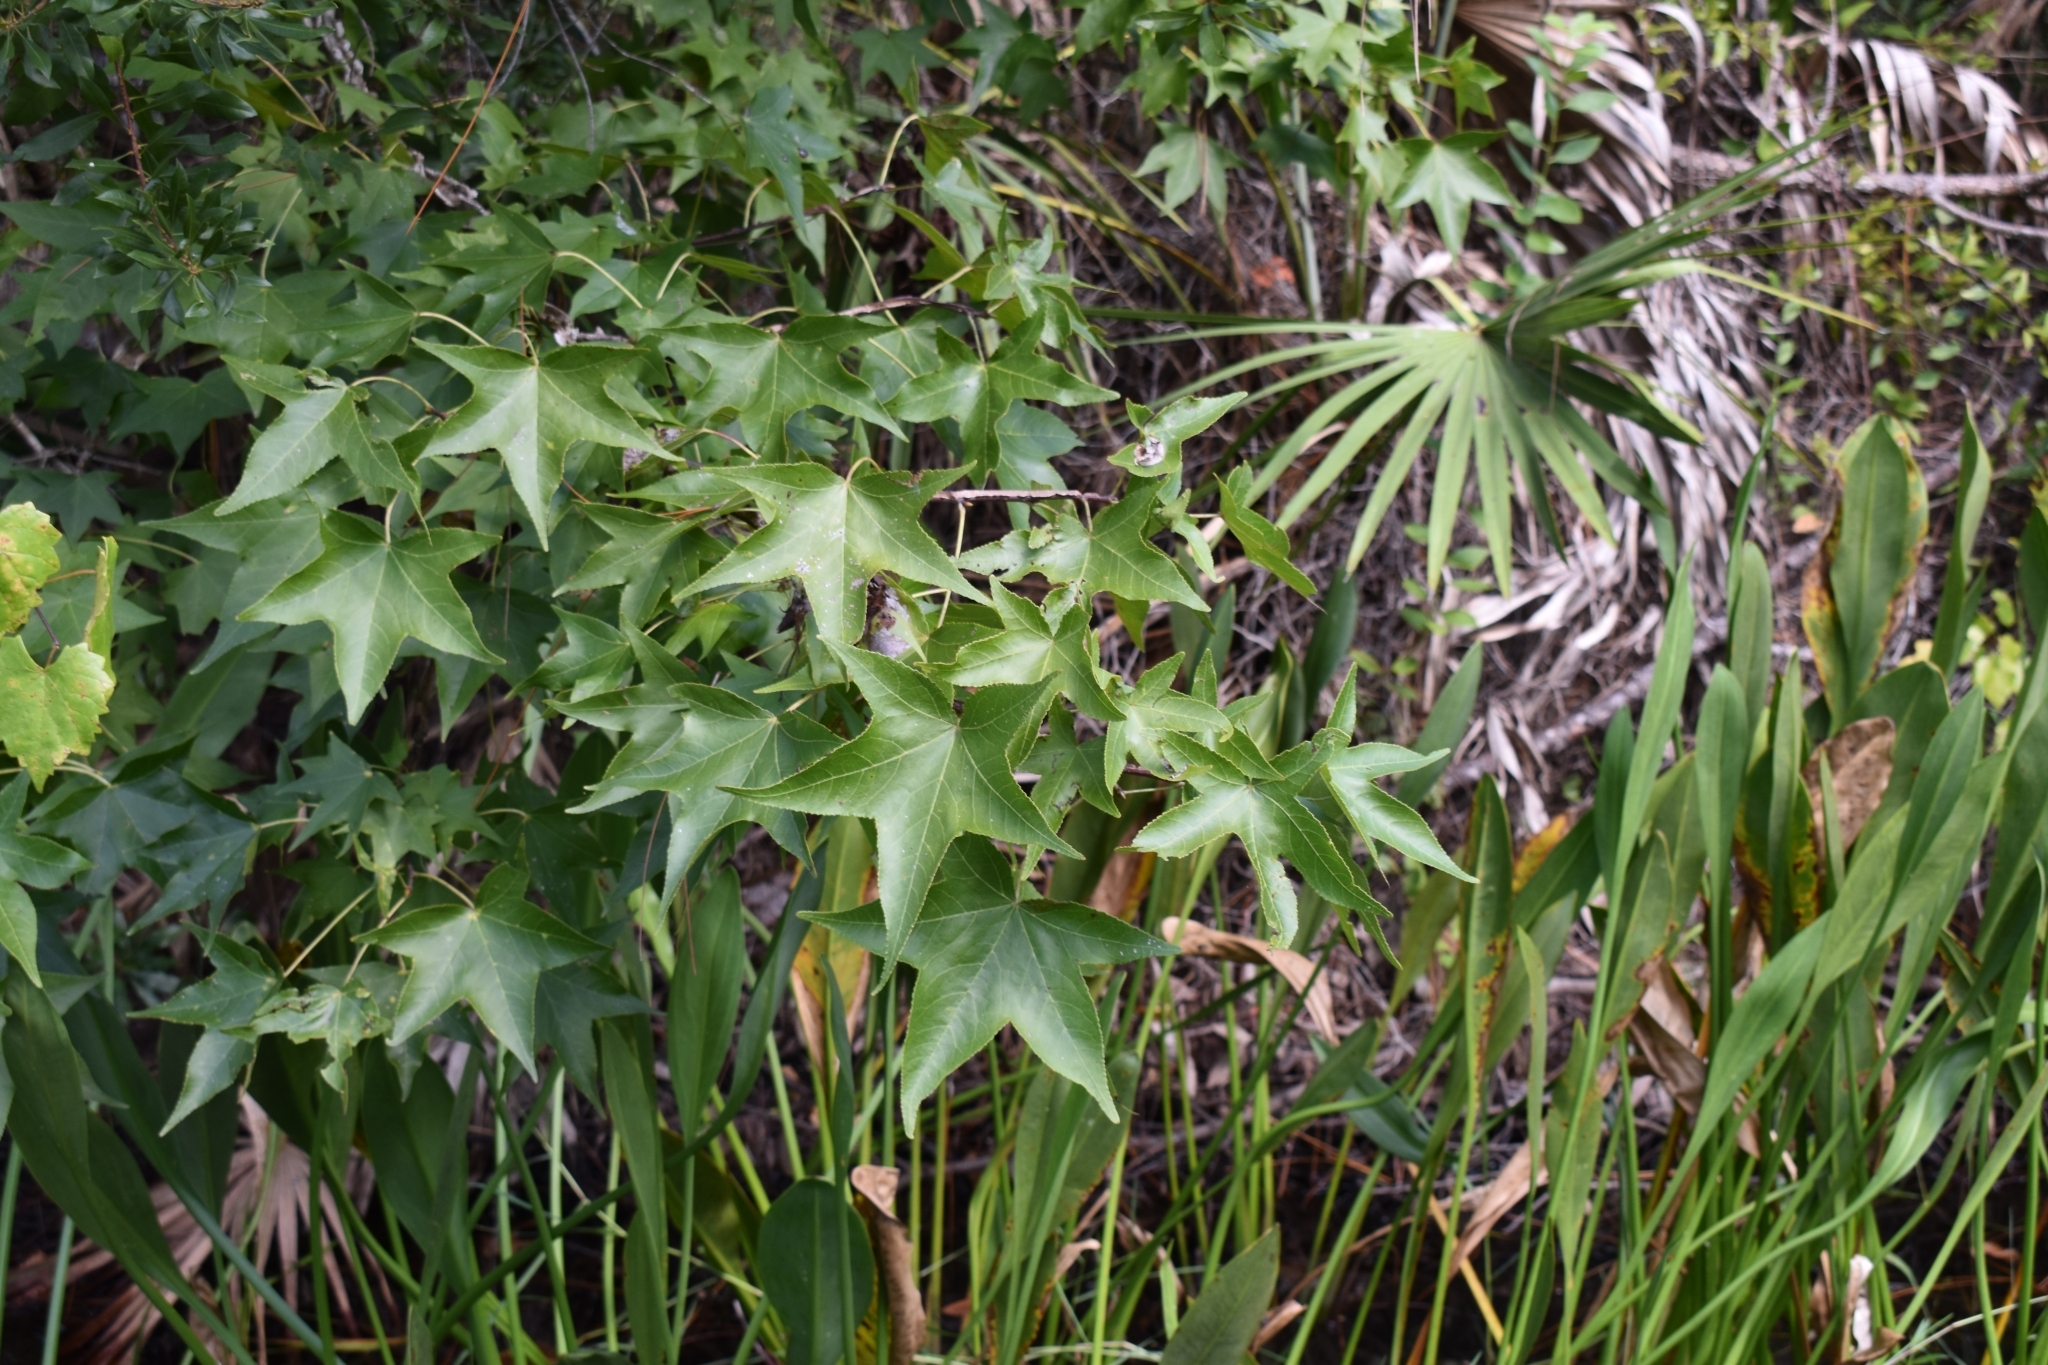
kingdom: Plantae
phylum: Tracheophyta
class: Magnoliopsida
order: Saxifragales
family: Altingiaceae
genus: Liquidambar
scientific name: Liquidambar styraciflua
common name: Sweet gum
